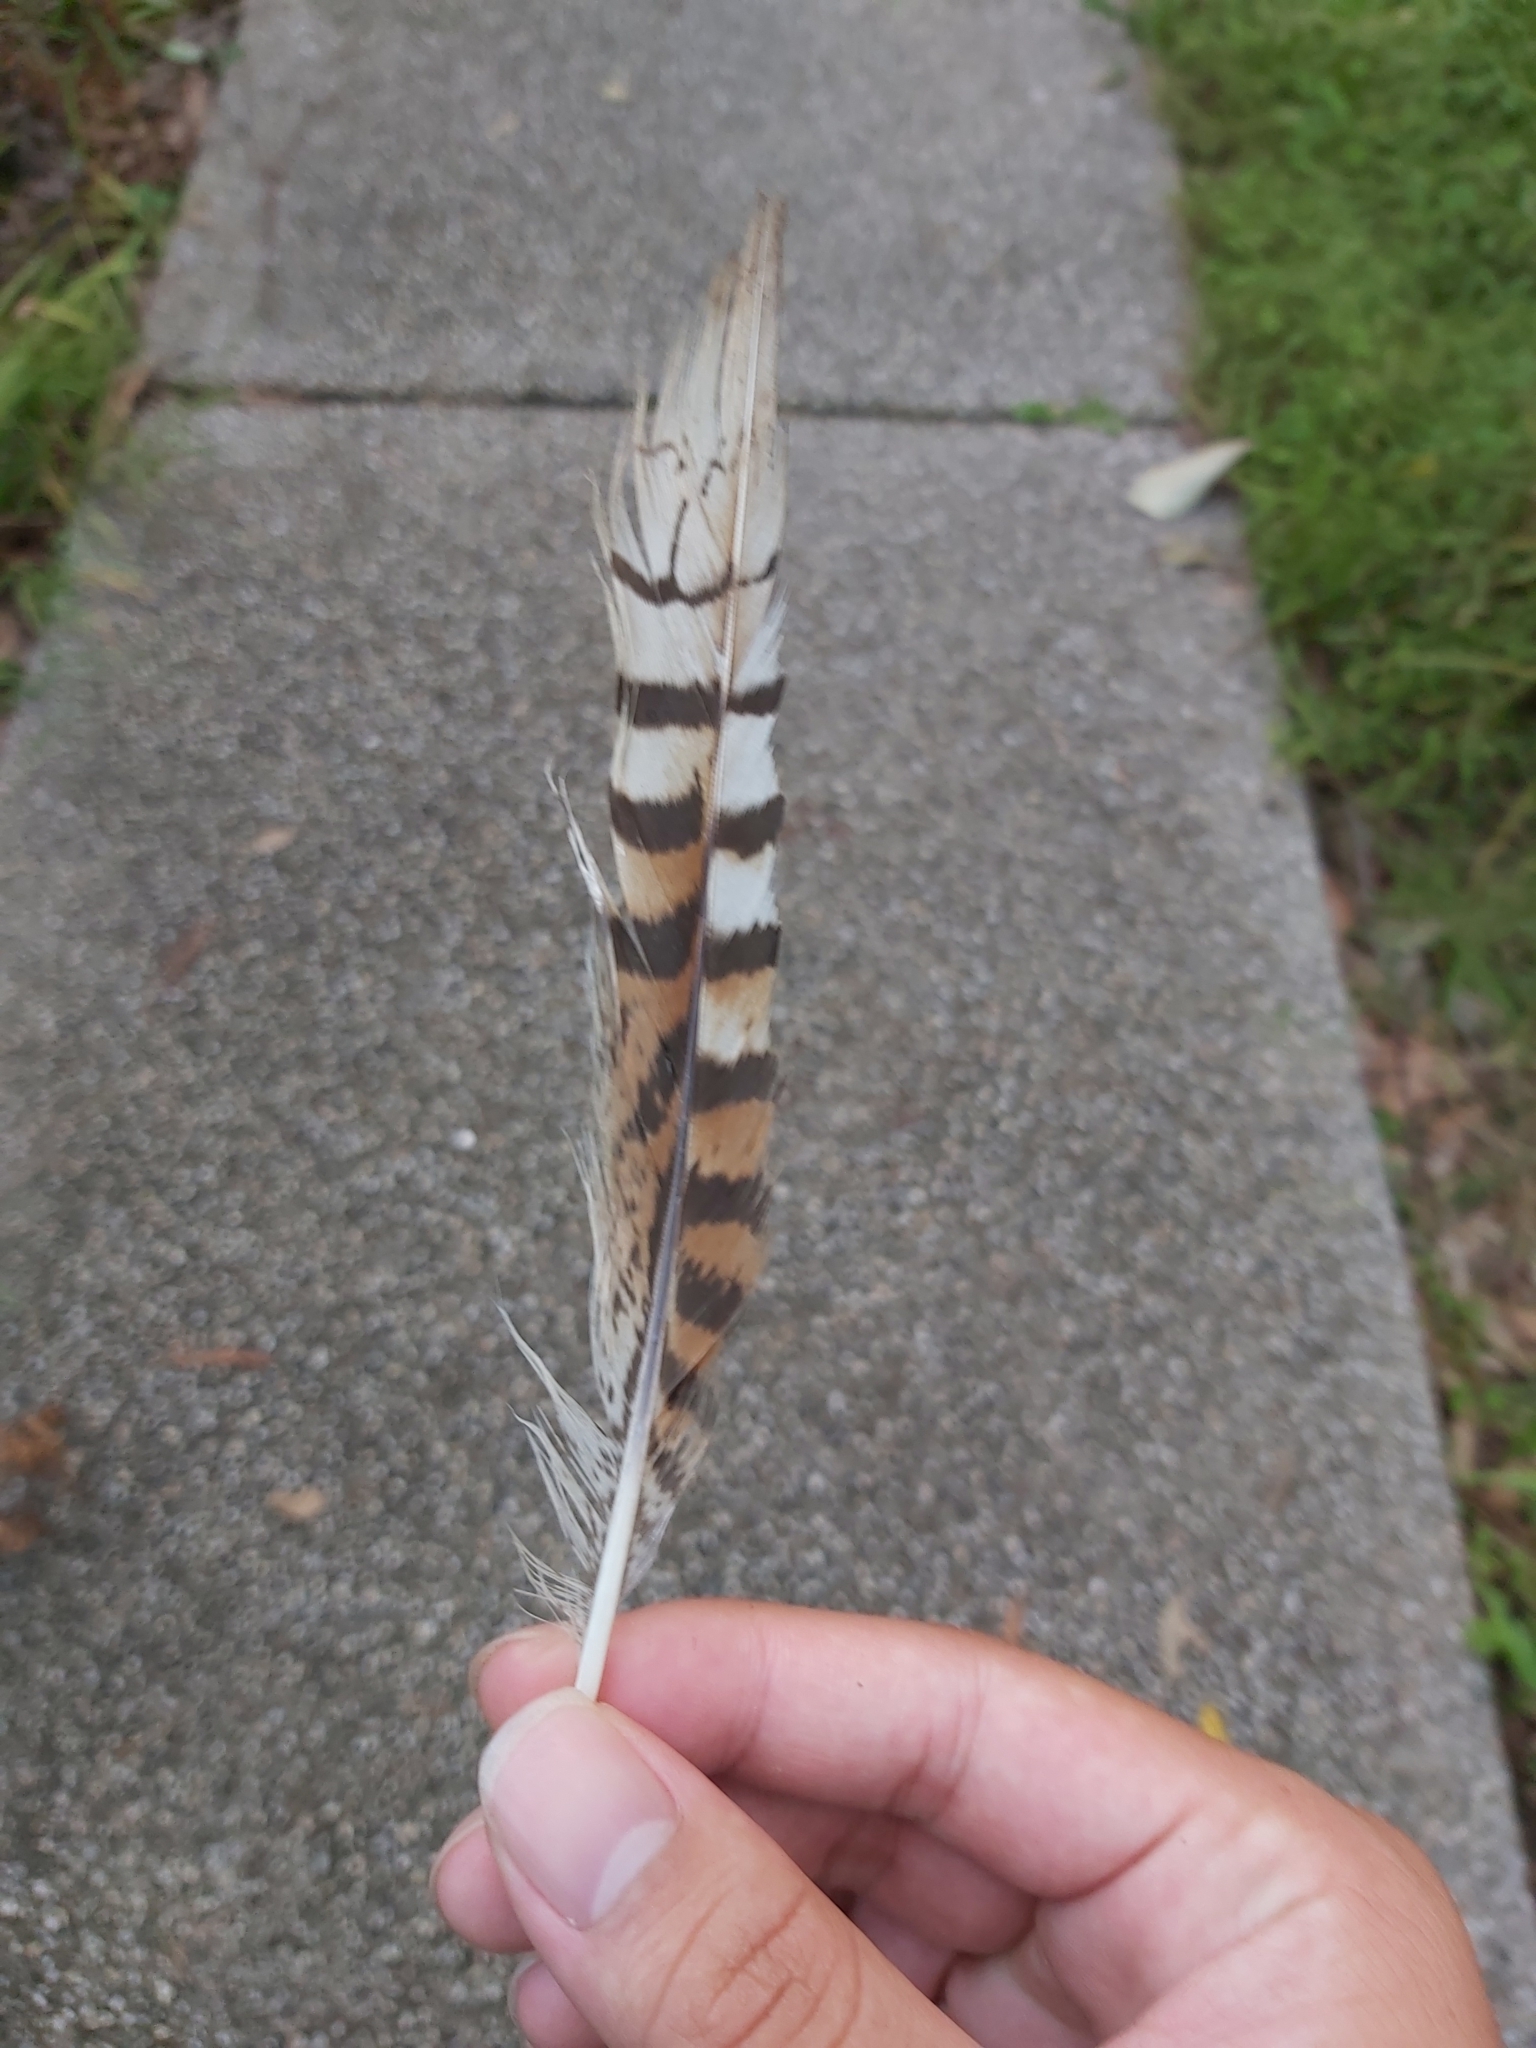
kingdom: Animalia
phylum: Chordata
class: Aves
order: Coraciiformes
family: Alcedinidae
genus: Dacelo
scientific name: Dacelo novaeguineae
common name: Laughing kookaburra
